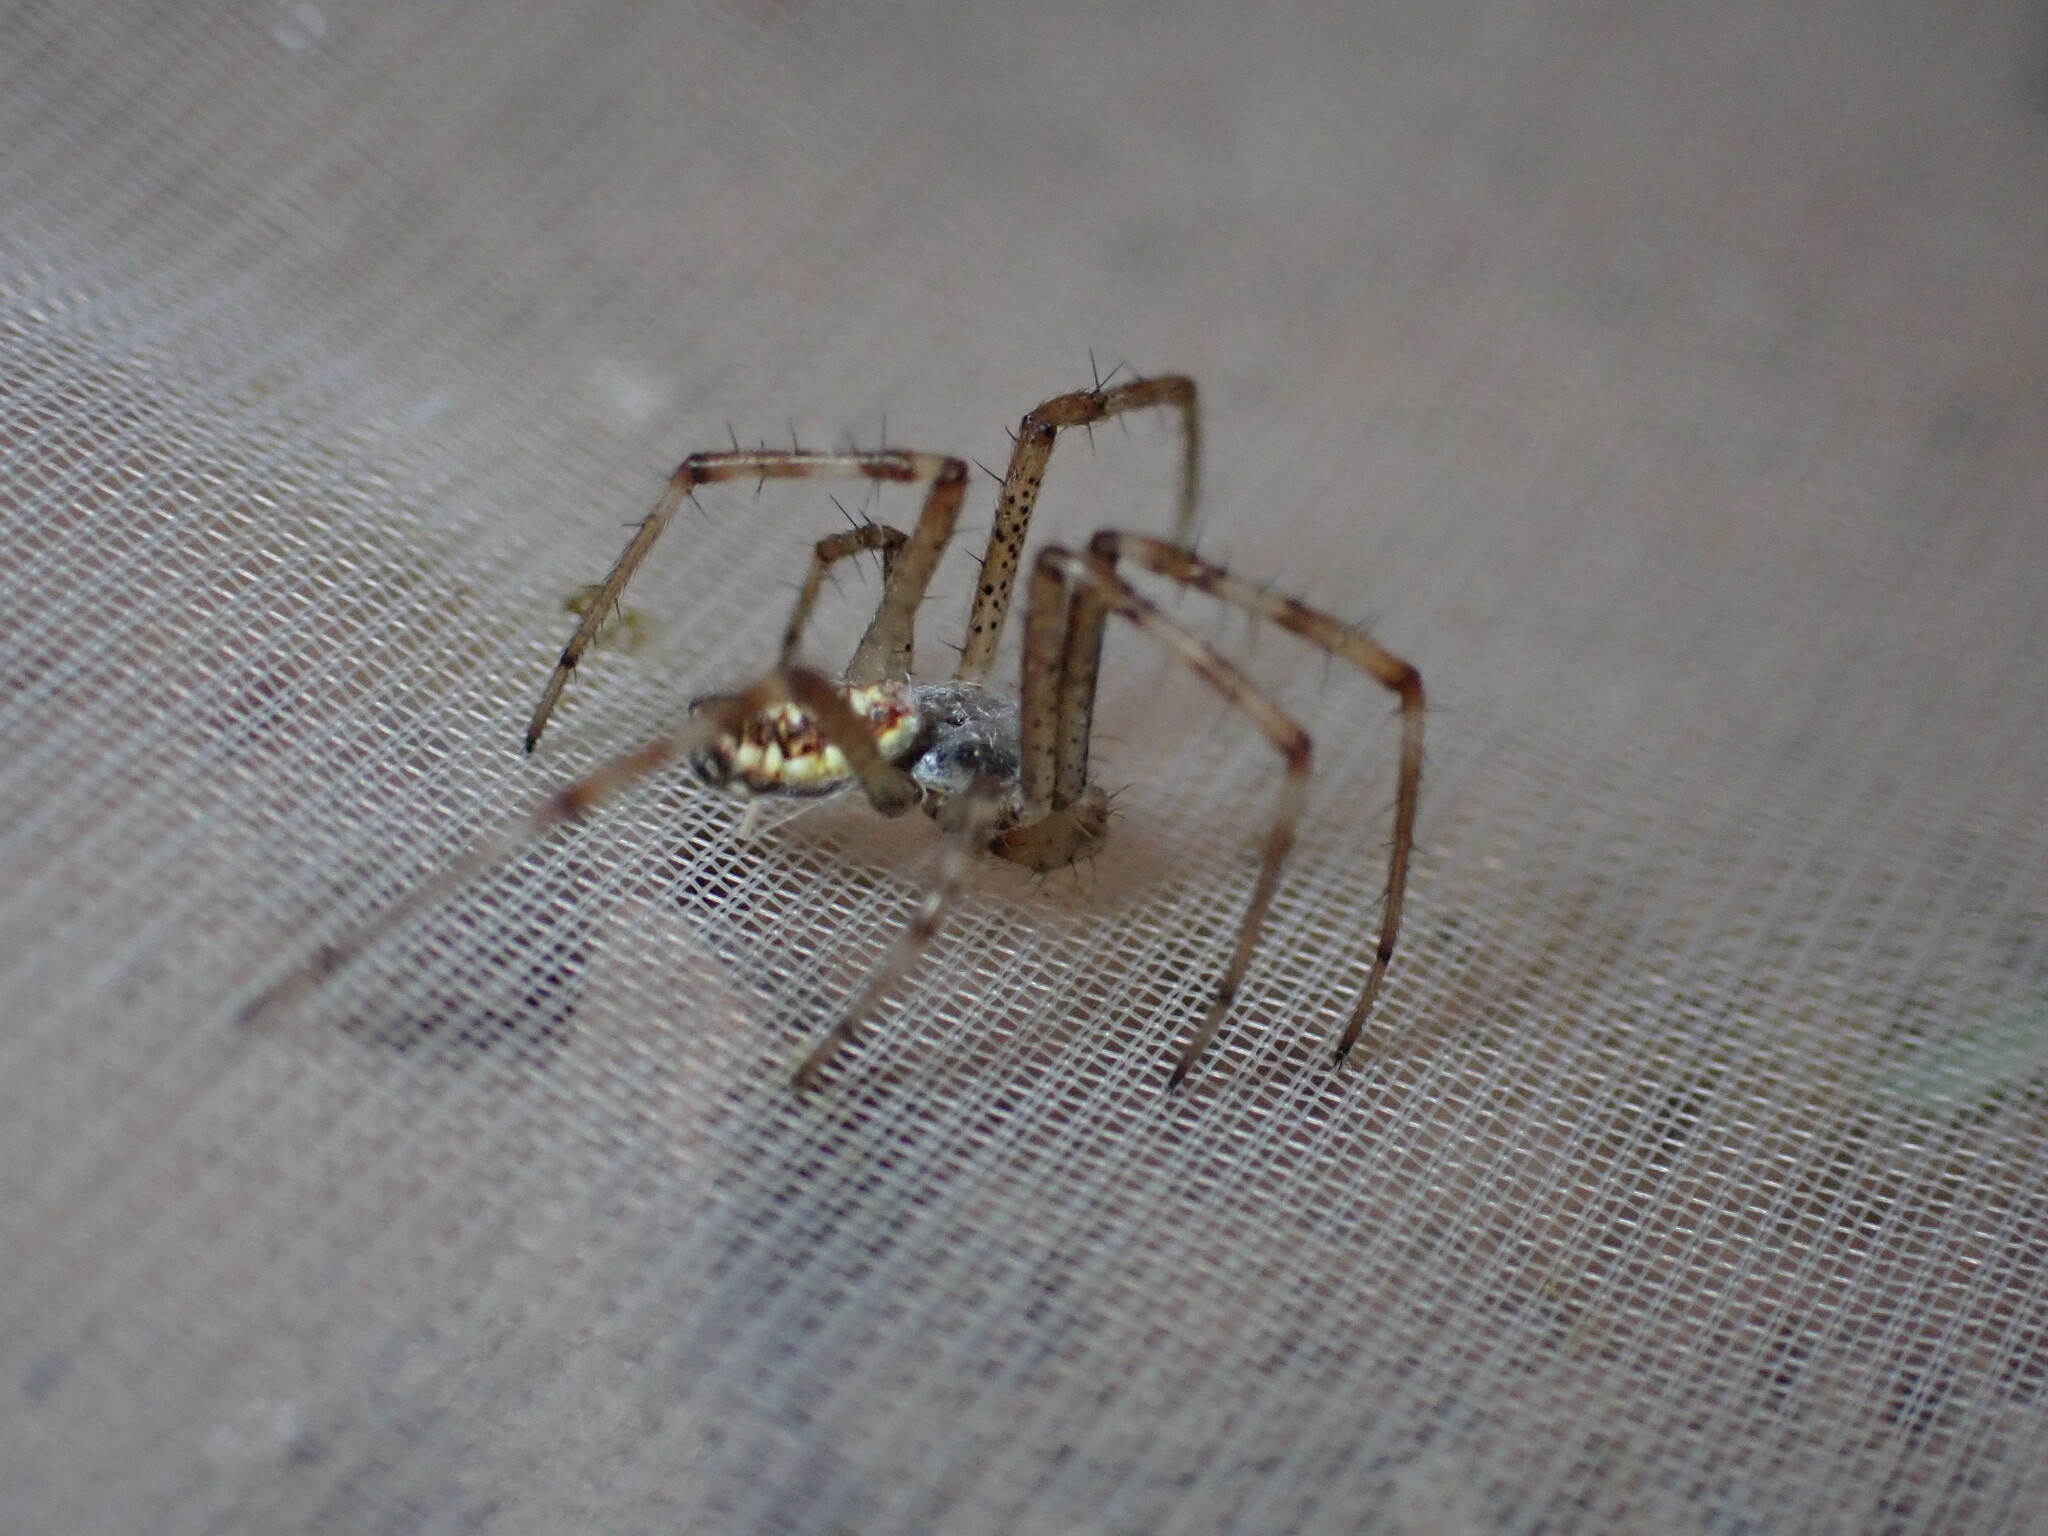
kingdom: Animalia
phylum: Arthropoda
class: Arachnida
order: Araneae
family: Araneidae
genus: Argiope
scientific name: Argiope bruennichi
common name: Wasp spider
